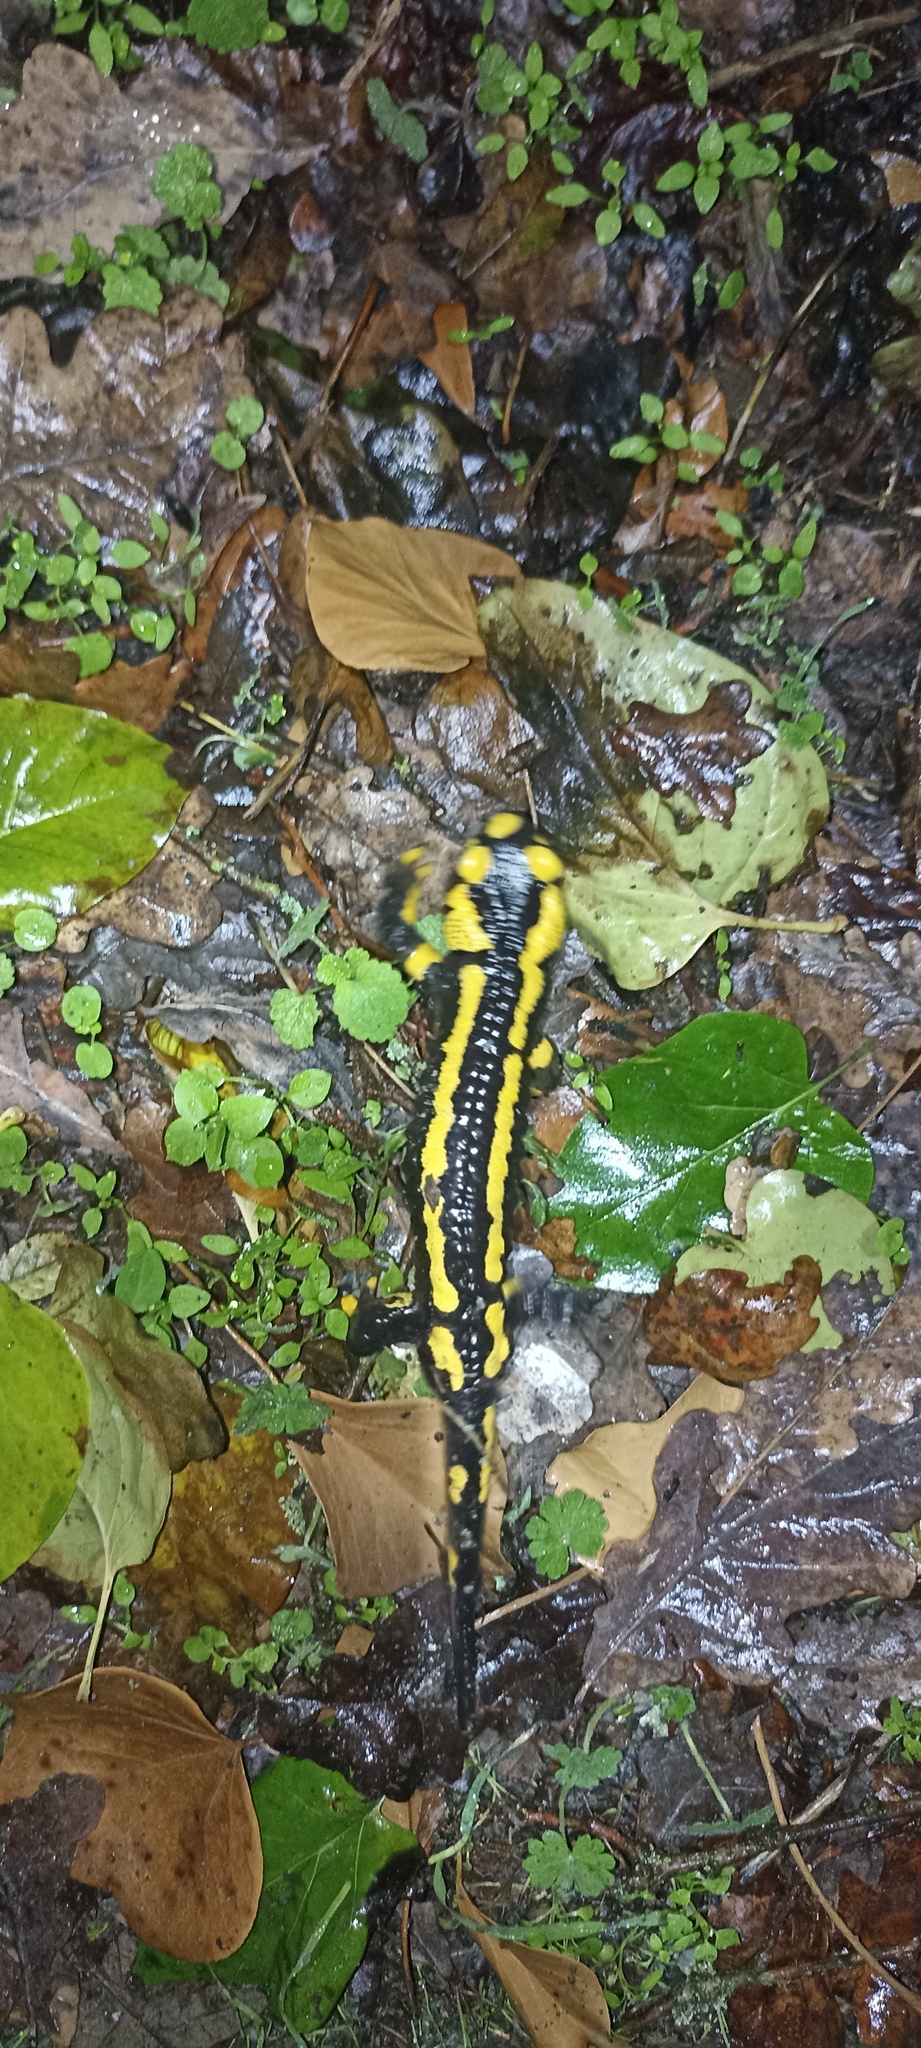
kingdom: Animalia
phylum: Chordata
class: Amphibia
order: Caudata
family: Salamandridae
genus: Salamandra
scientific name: Salamandra salamandra
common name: Fire salamander
